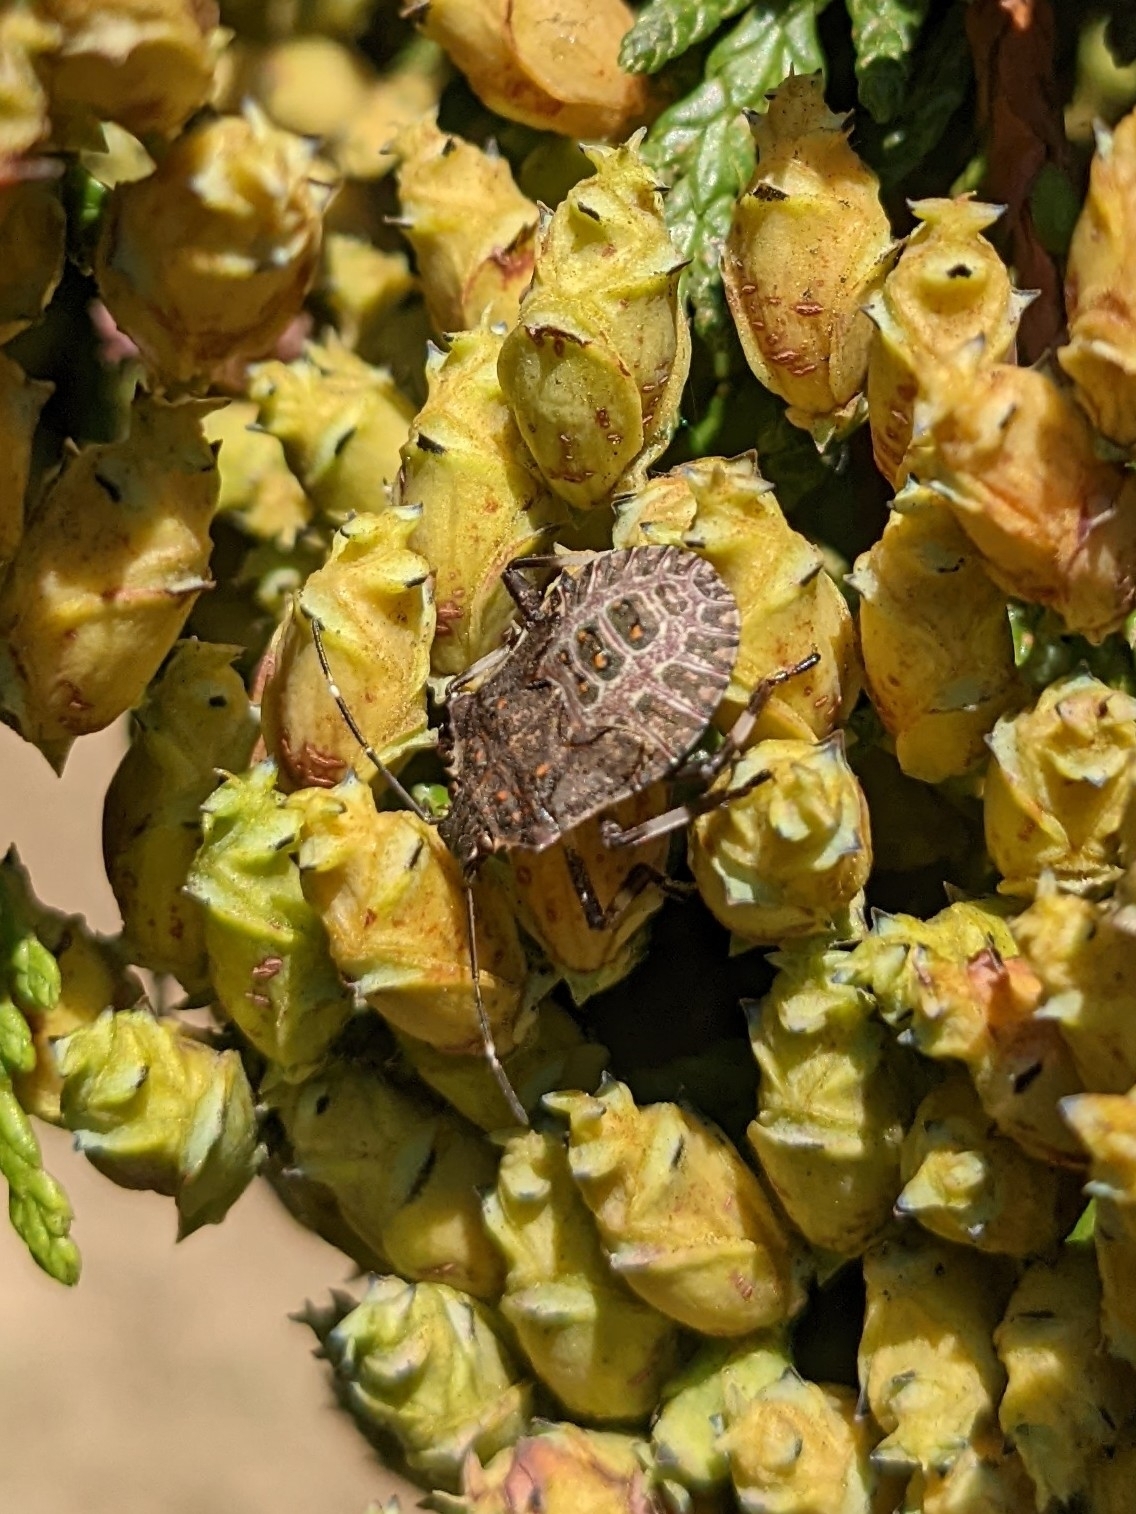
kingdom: Animalia
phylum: Arthropoda
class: Insecta
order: Hemiptera
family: Pentatomidae
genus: Halyomorpha
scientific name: Halyomorpha halys
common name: Brown marmorated stink bug
